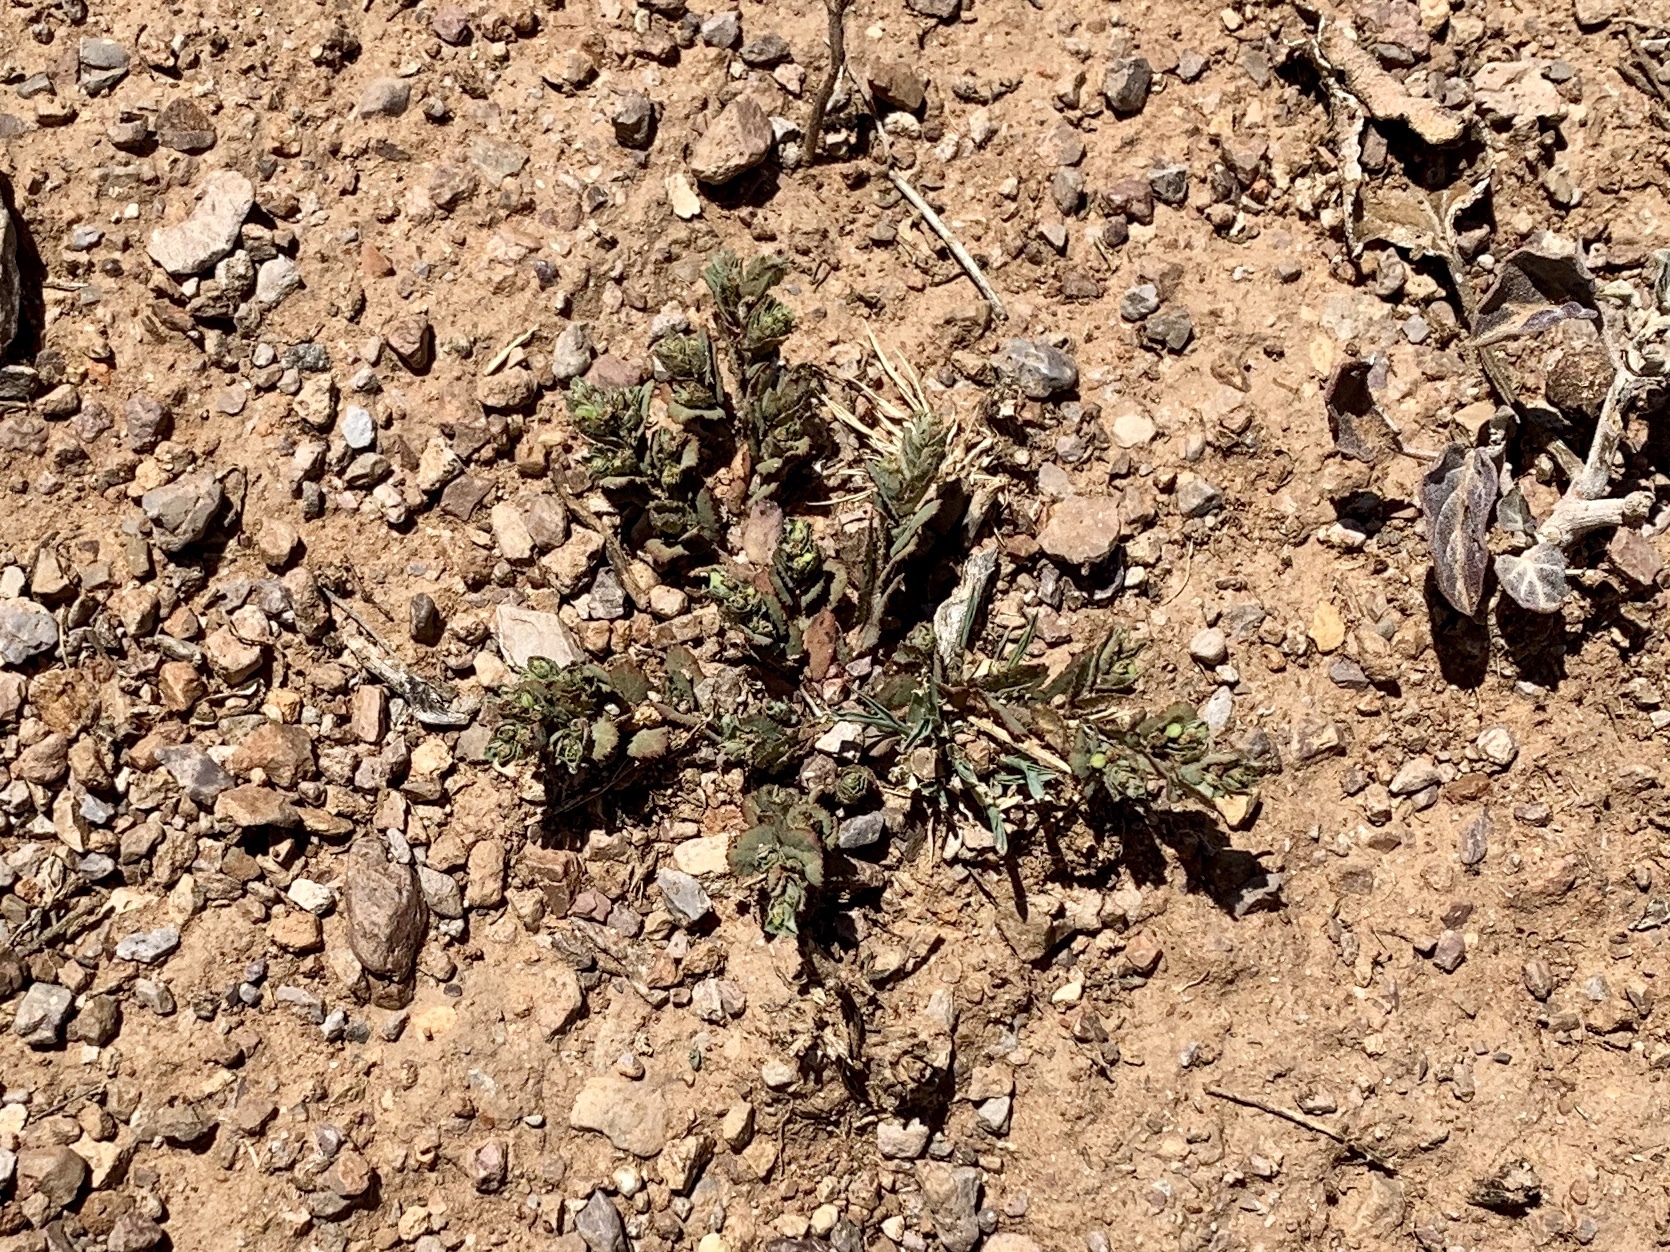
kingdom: Plantae
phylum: Tracheophyta
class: Magnoliopsida
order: Malpighiales
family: Euphorbiaceae
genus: Euphorbia
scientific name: Euphorbia serrula
